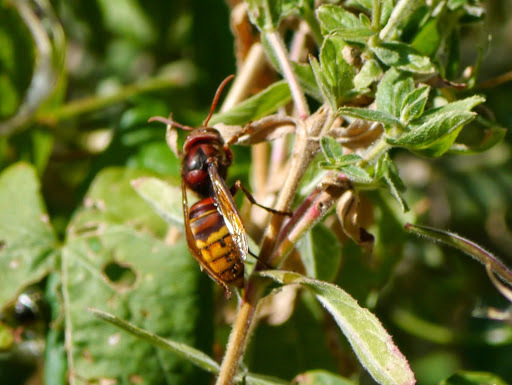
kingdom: Animalia
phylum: Arthropoda
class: Insecta
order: Hymenoptera
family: Vespidae
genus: Vespa
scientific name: Vespa crabro
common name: Hornet
